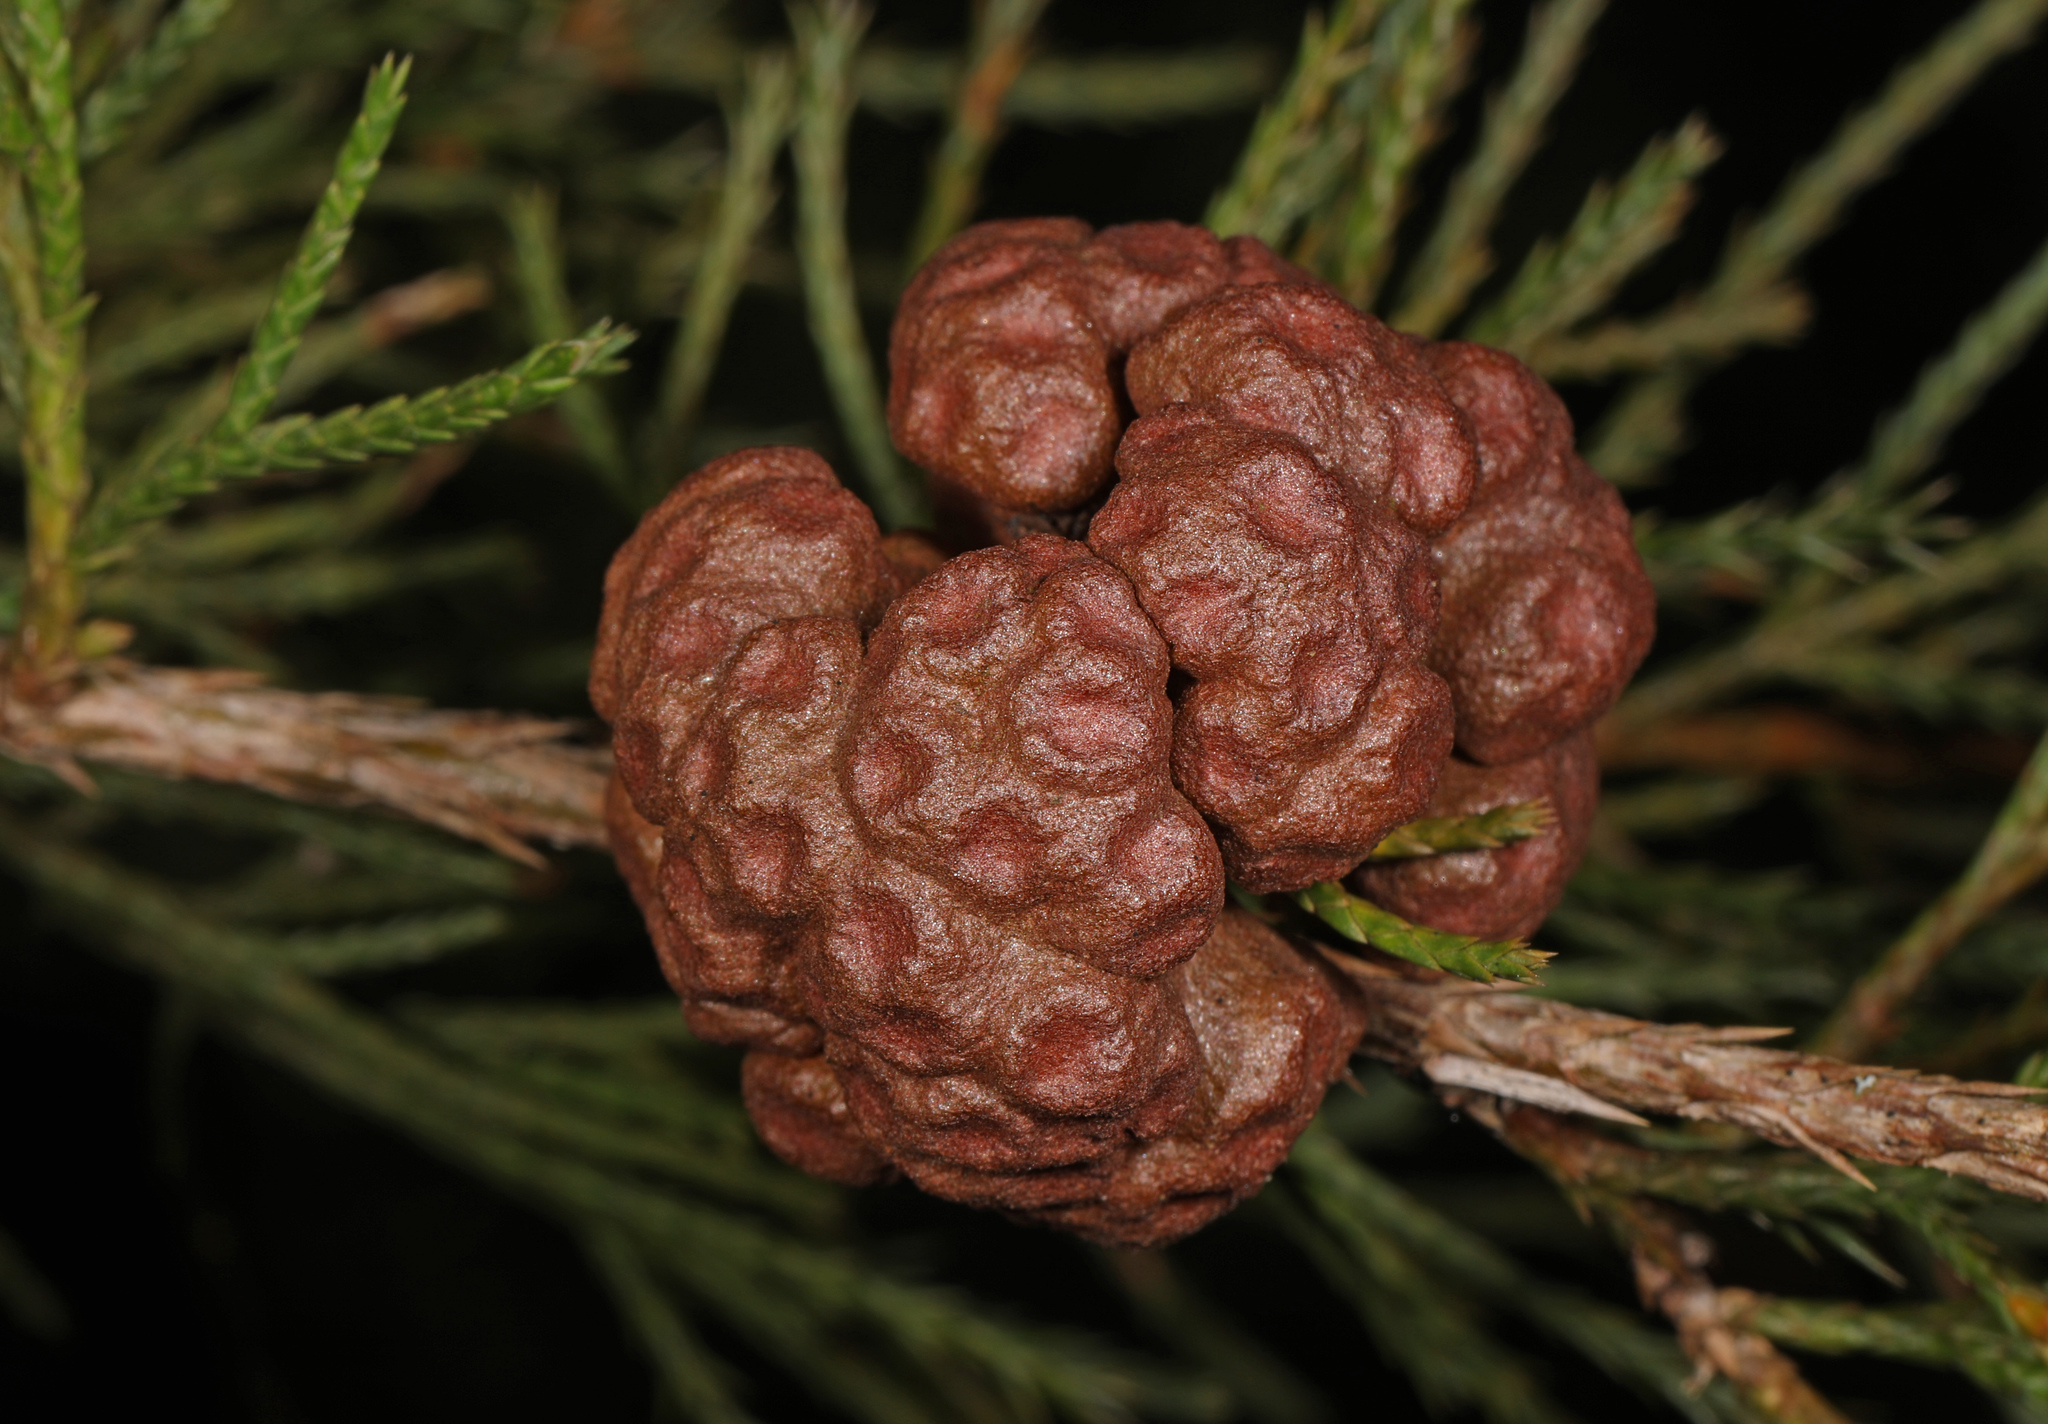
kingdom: Fungi
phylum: Basidiomycota
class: Pucciniomycetes
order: Pucciniales
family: Gymnosporangiaceae
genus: Gymnosporangium
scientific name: Gymnosporangium juniperi-virginianae
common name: Juniper-apple rust
